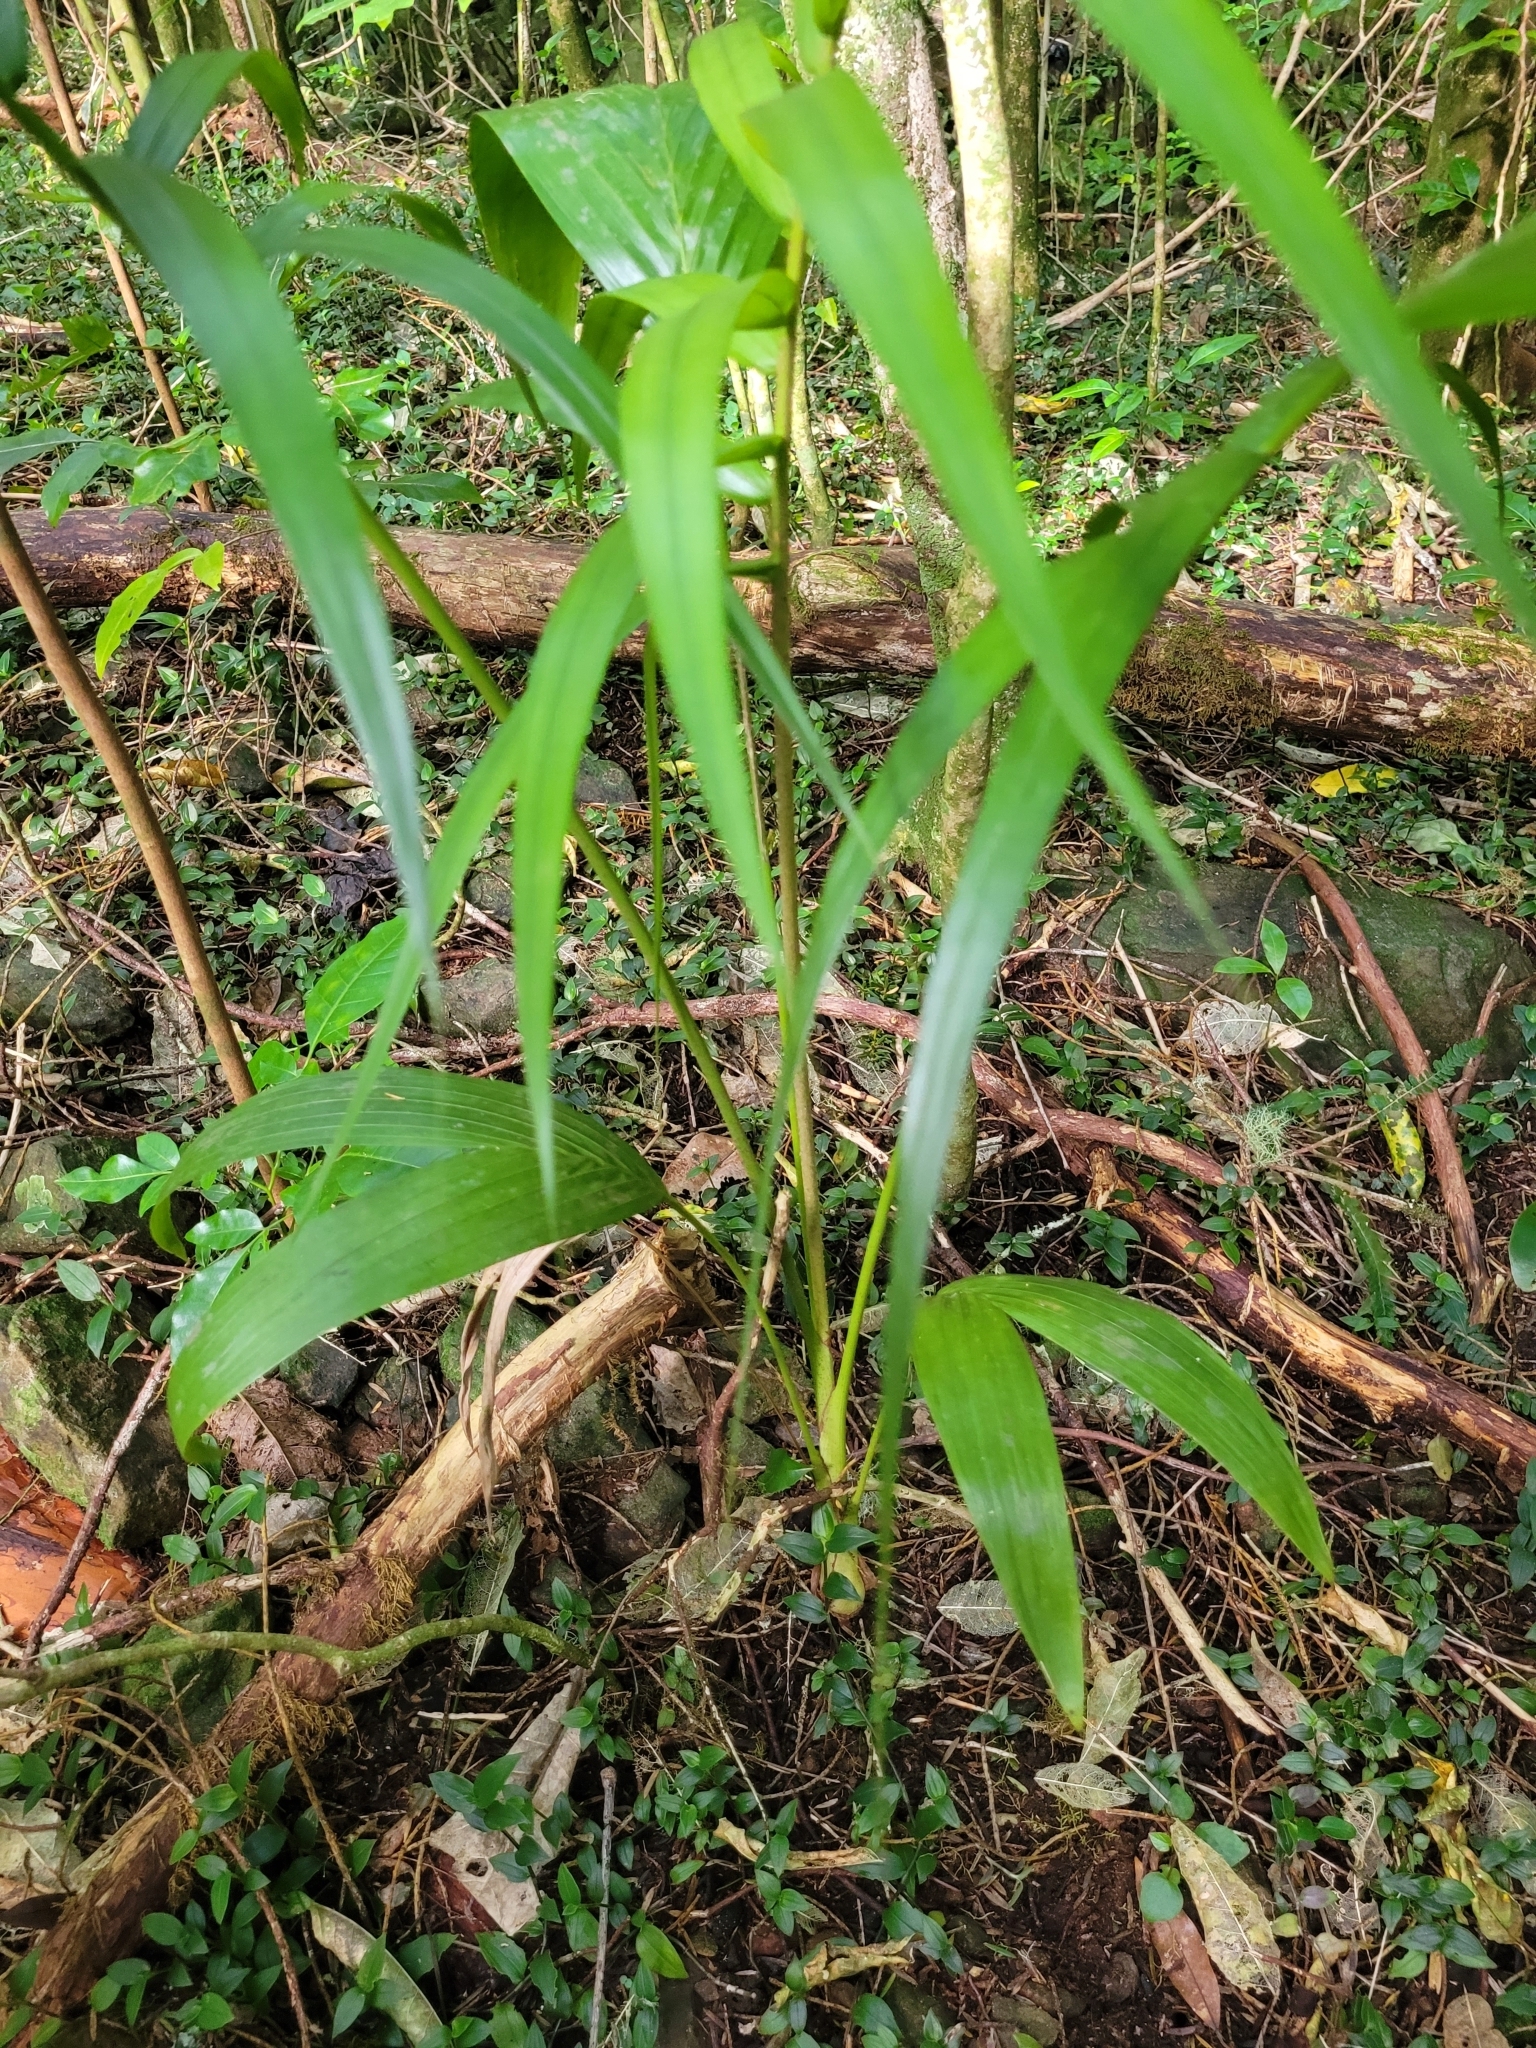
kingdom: Plantae
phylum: Tracheophyta
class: Liliopsida
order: Arecales
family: Arecaceae
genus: Archontophoenix
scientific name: Archontophoenix cunninghamiana
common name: Piccabeen bangalow palm
